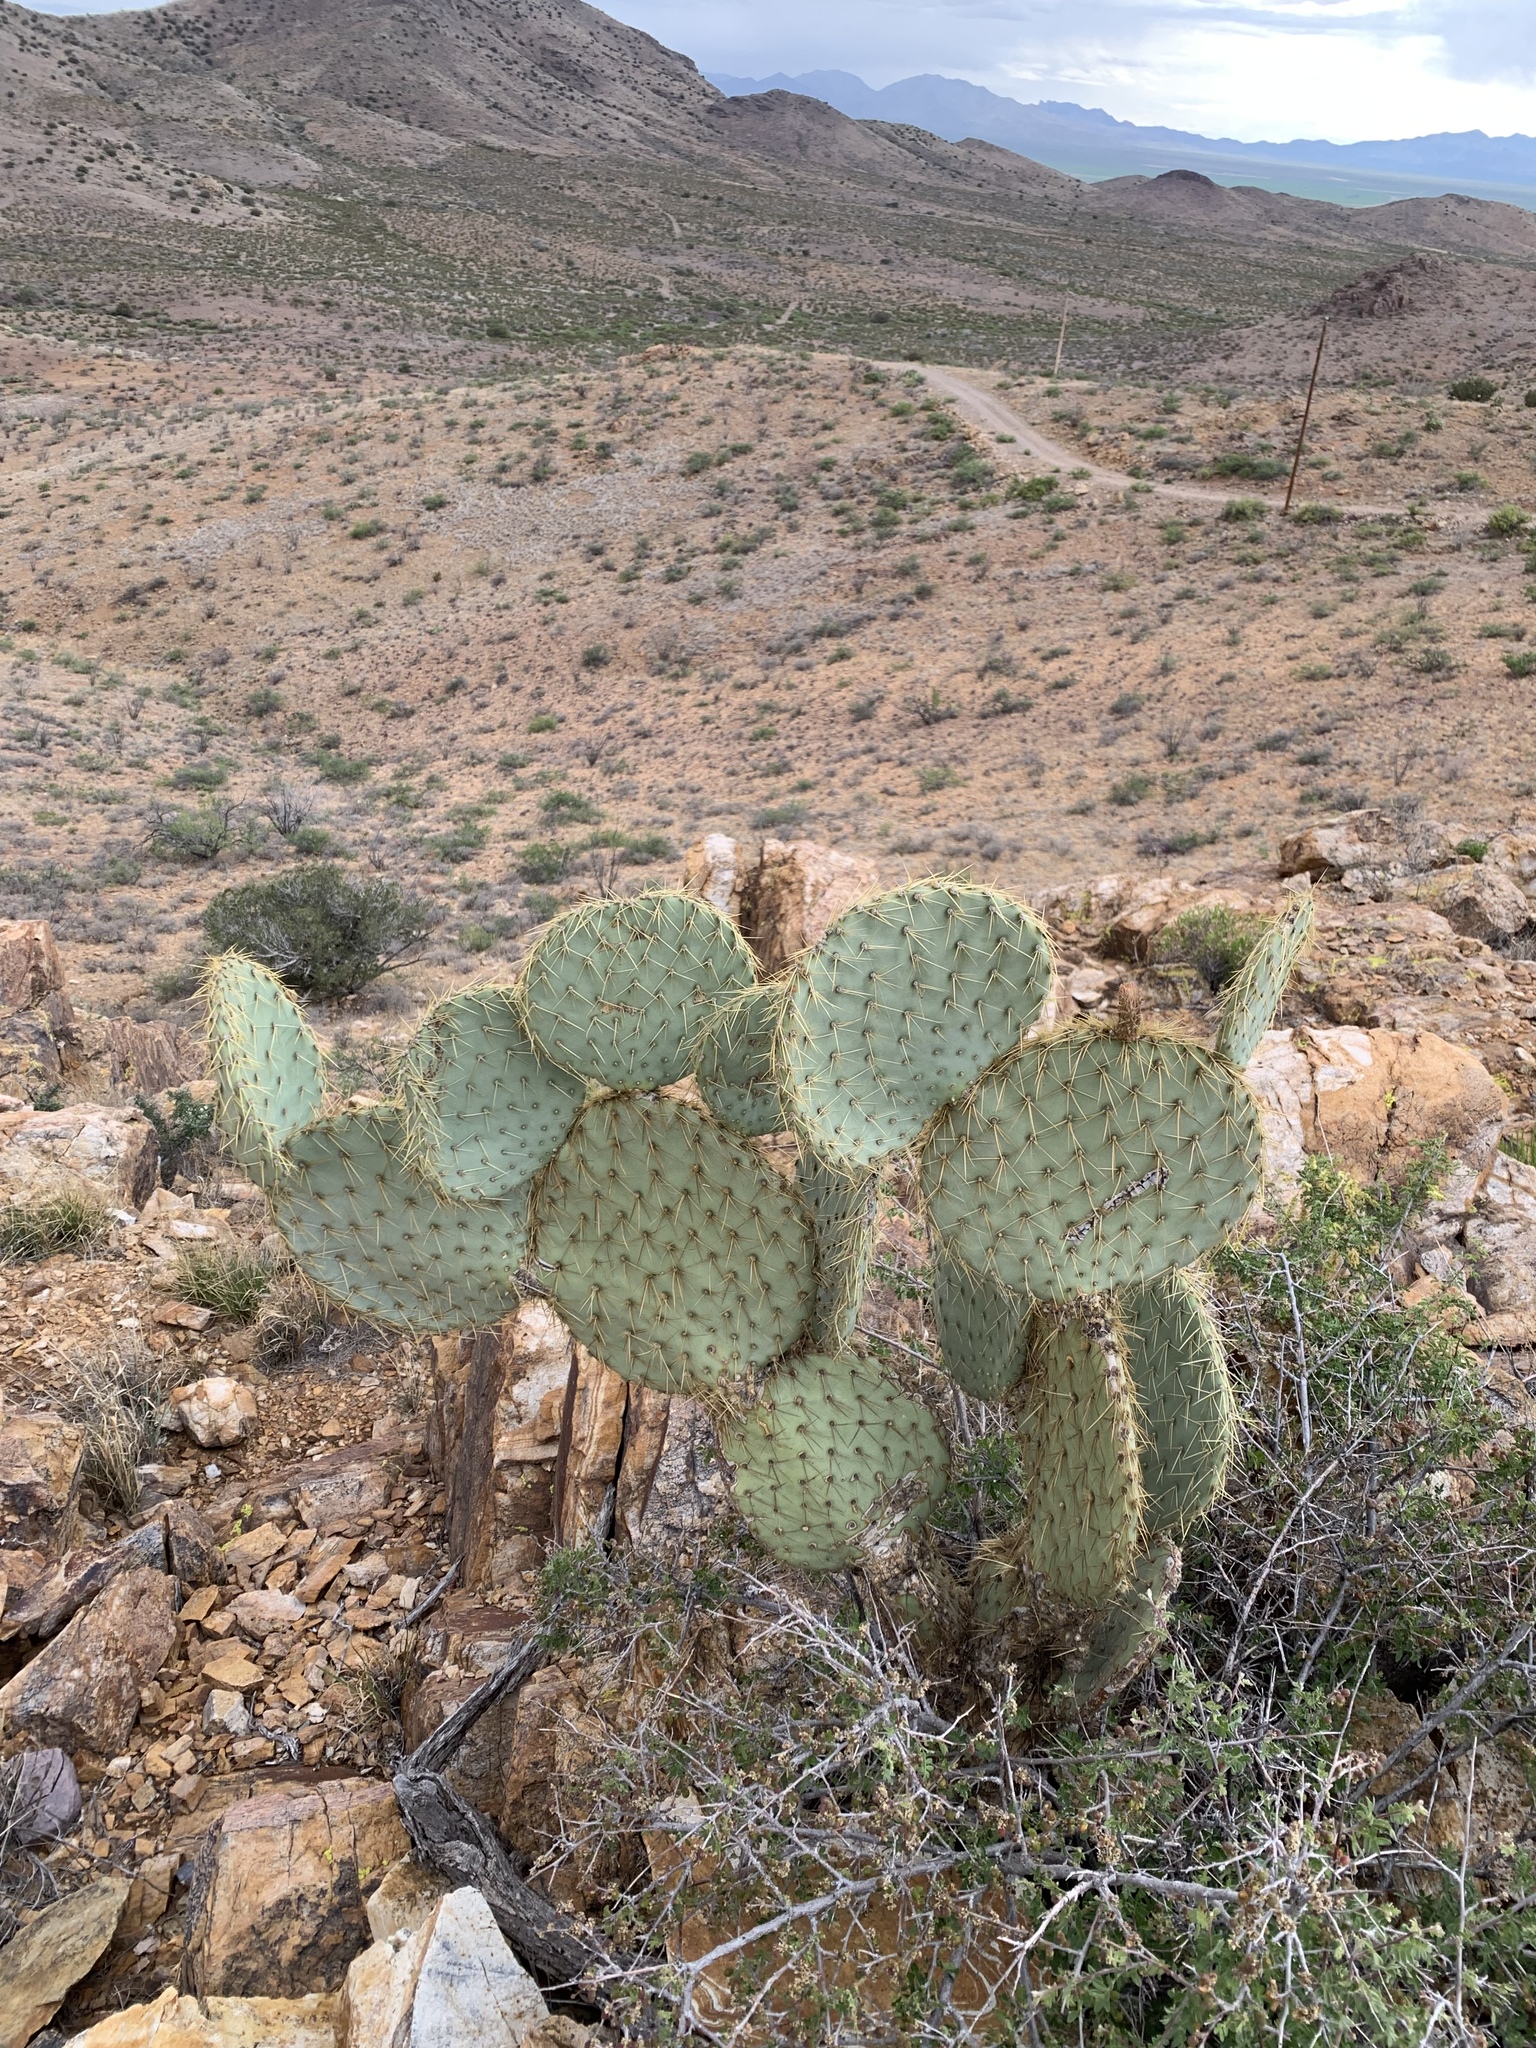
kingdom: Plantae
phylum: Tracheophyta
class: Magnoliopsida
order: Caryophyllales
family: Cactaceae
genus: Opuntia
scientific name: Opuntia chlorotica
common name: Dollar-joint prickly-pear
